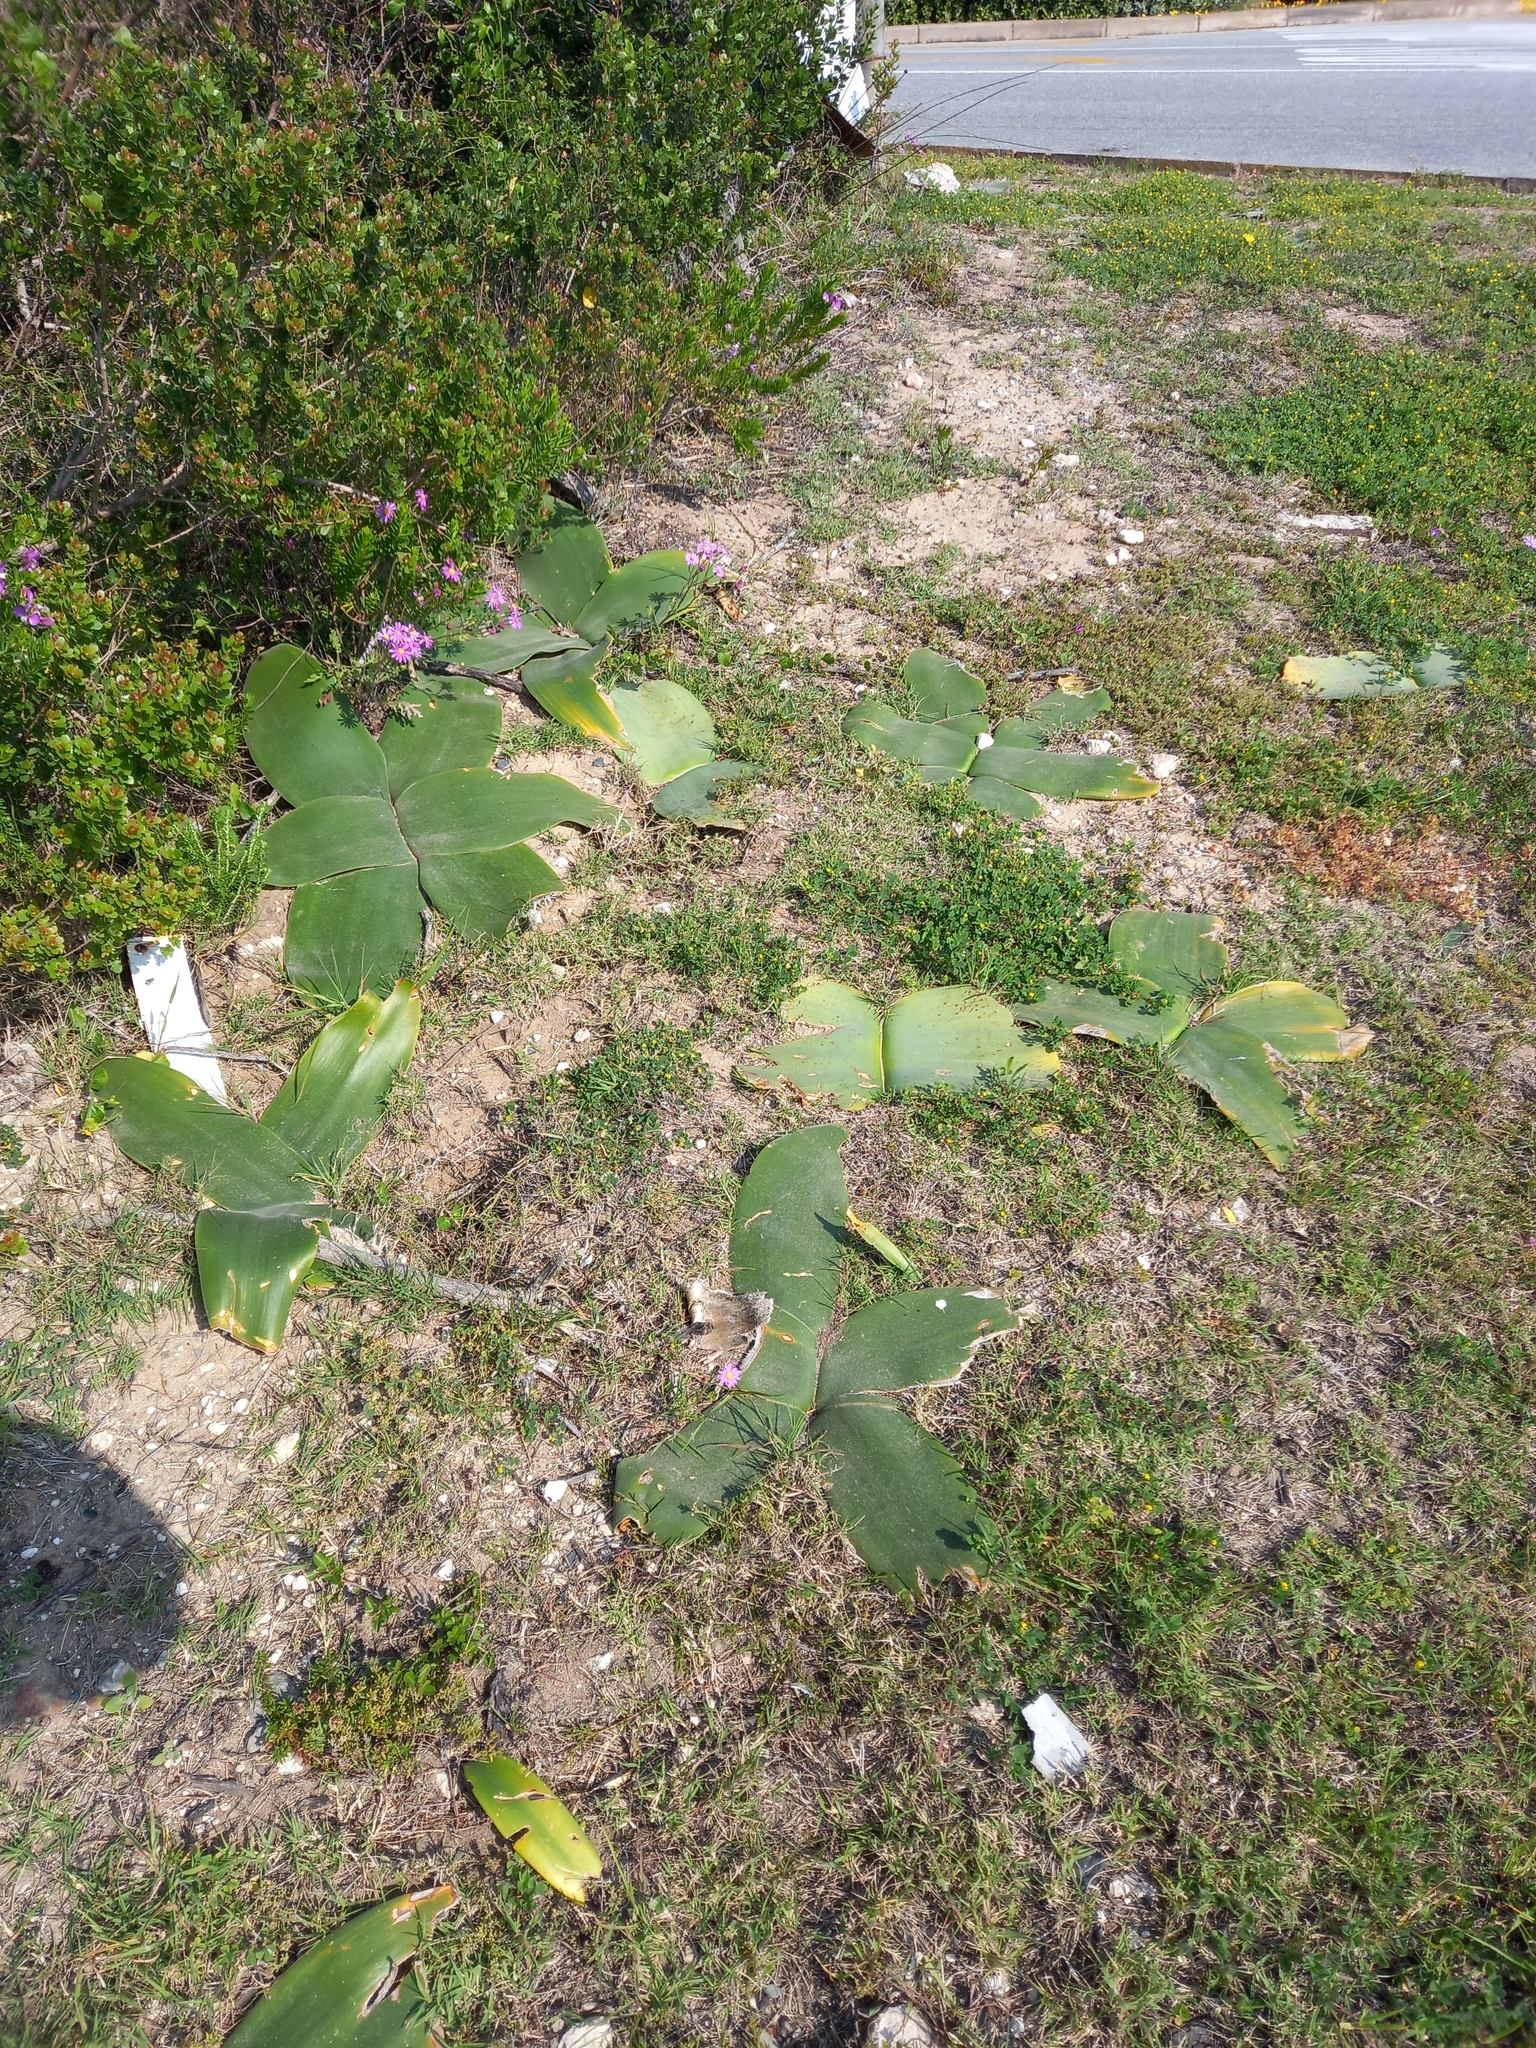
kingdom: Plantae
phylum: Tracheophyta
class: Liliopsida
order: Asparagales
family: Amaryllidaceae
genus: Brunsvigia
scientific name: Brunsvigia orientalis
